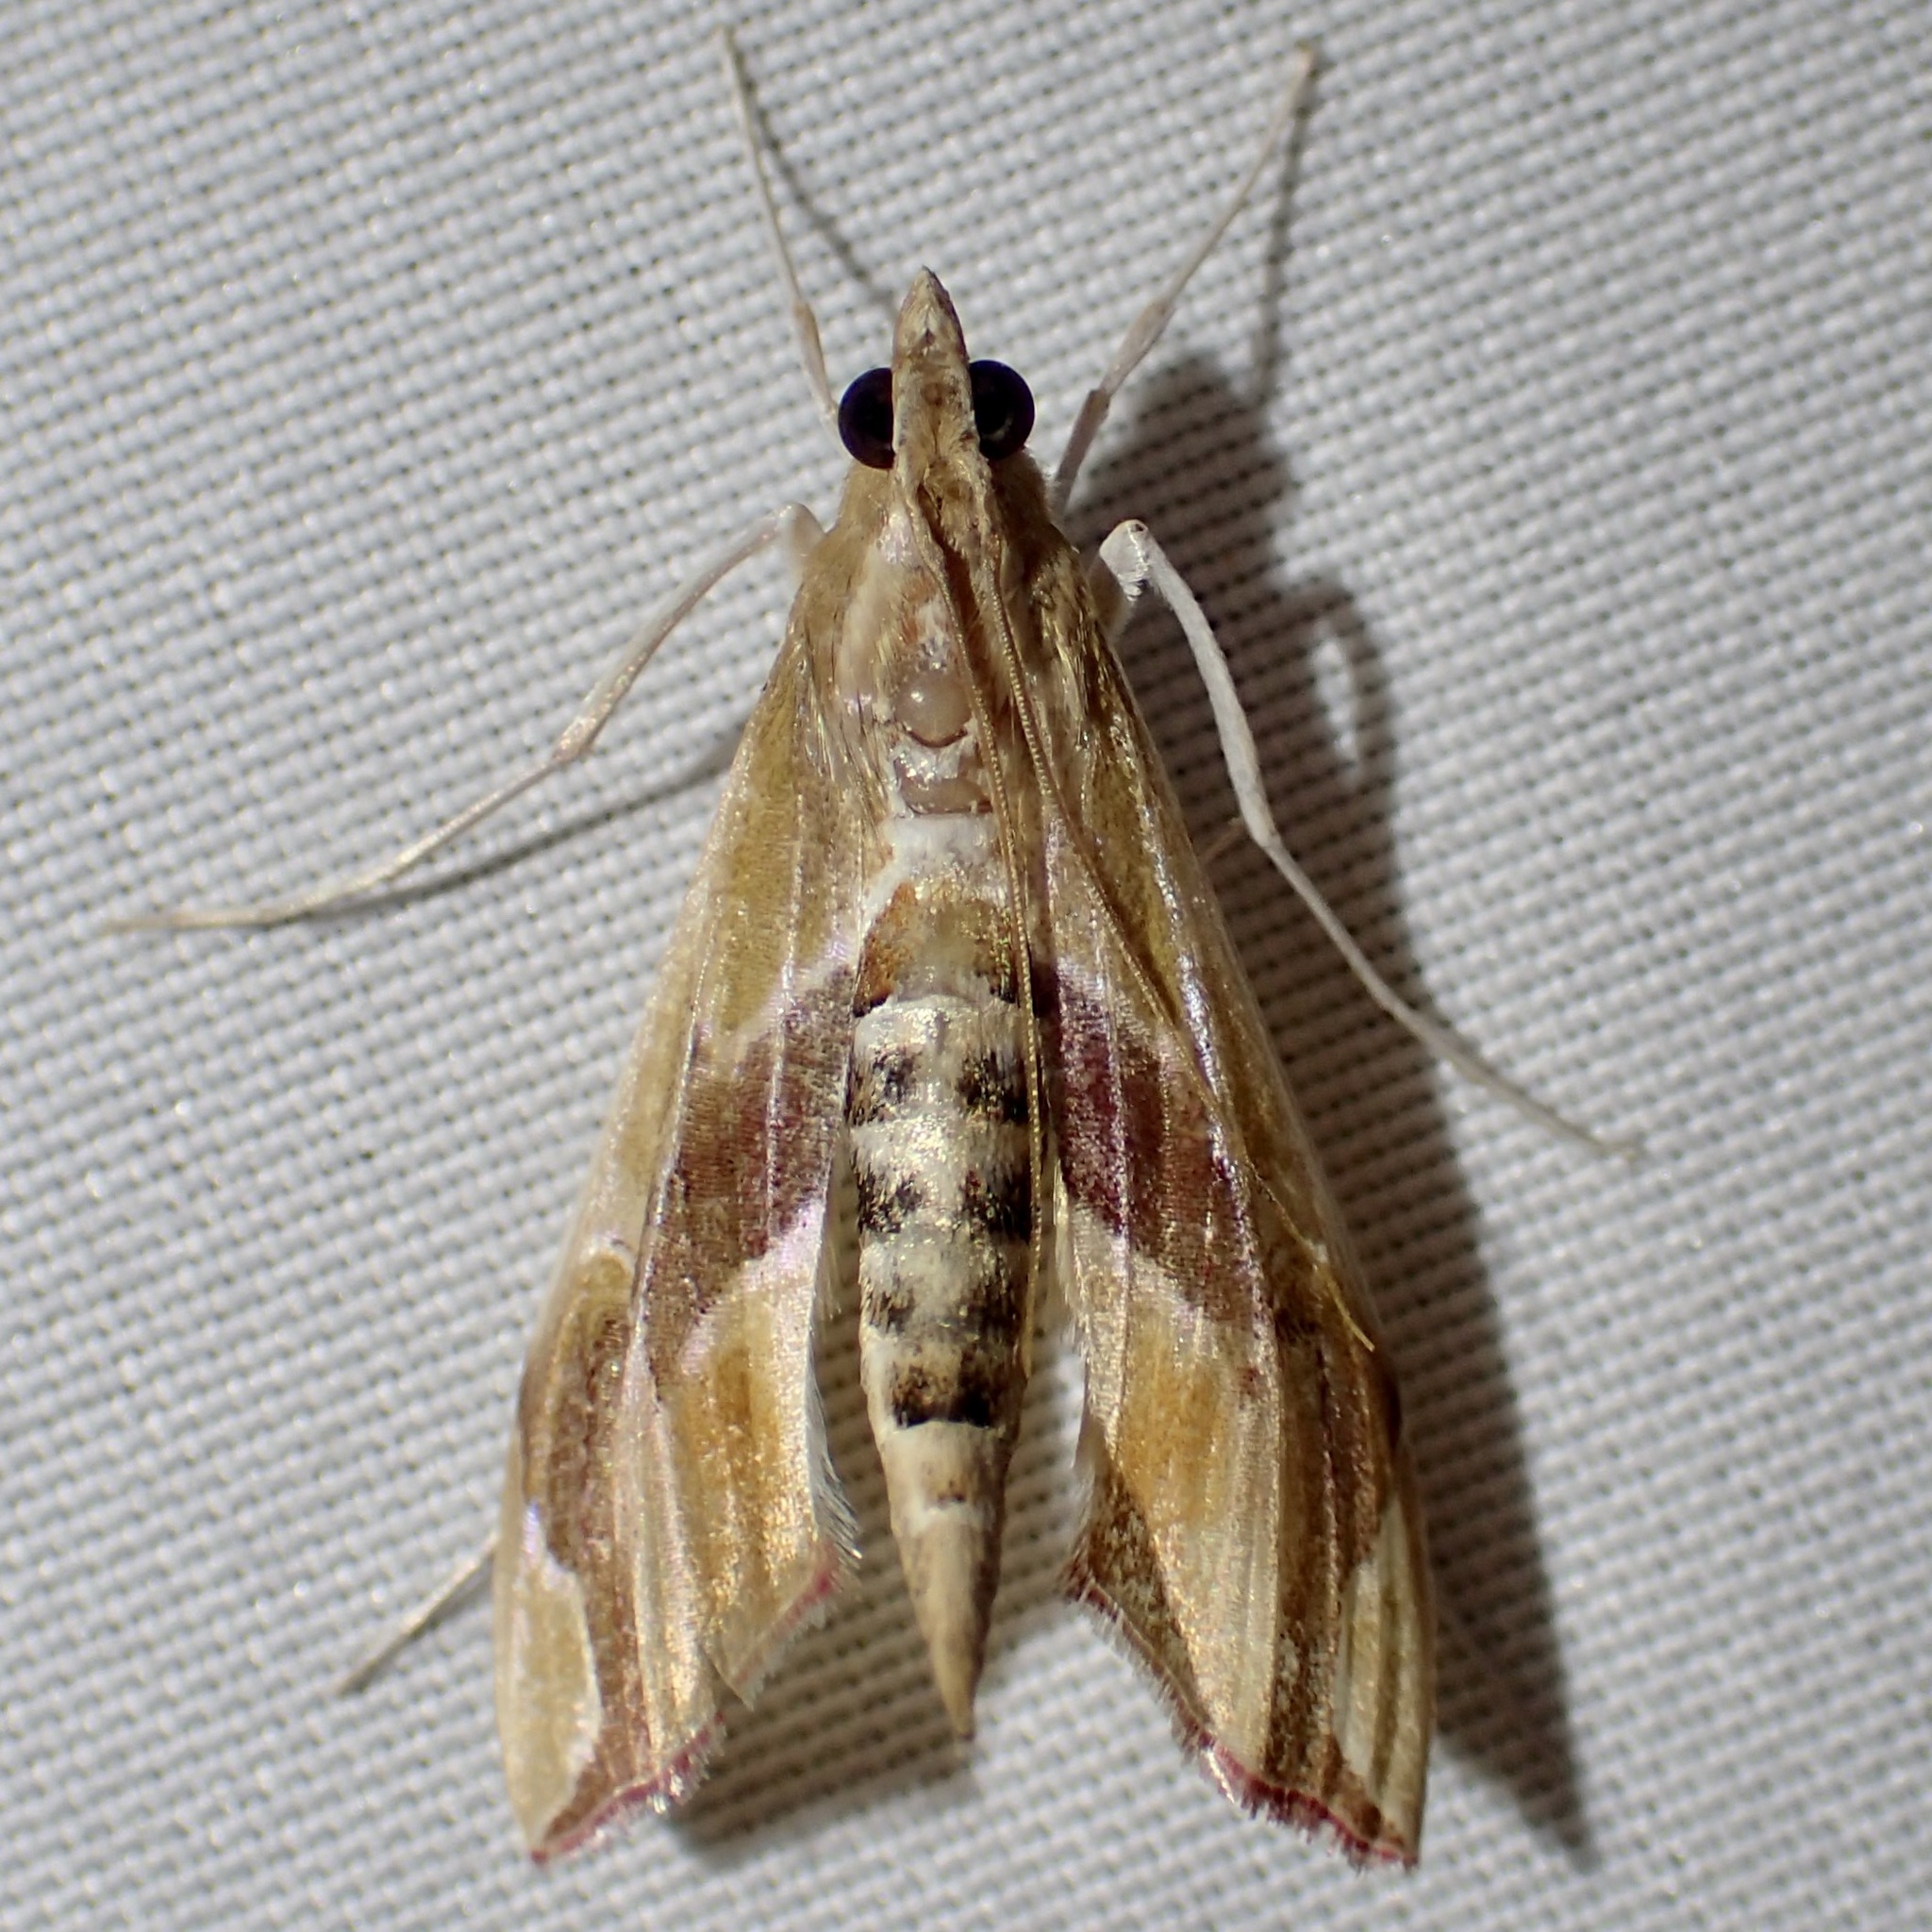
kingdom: Animalia
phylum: Arthropoda
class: Insecta
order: Lepidoptera
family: Crambidae
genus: Agathodes
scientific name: Agathodes monstralis
